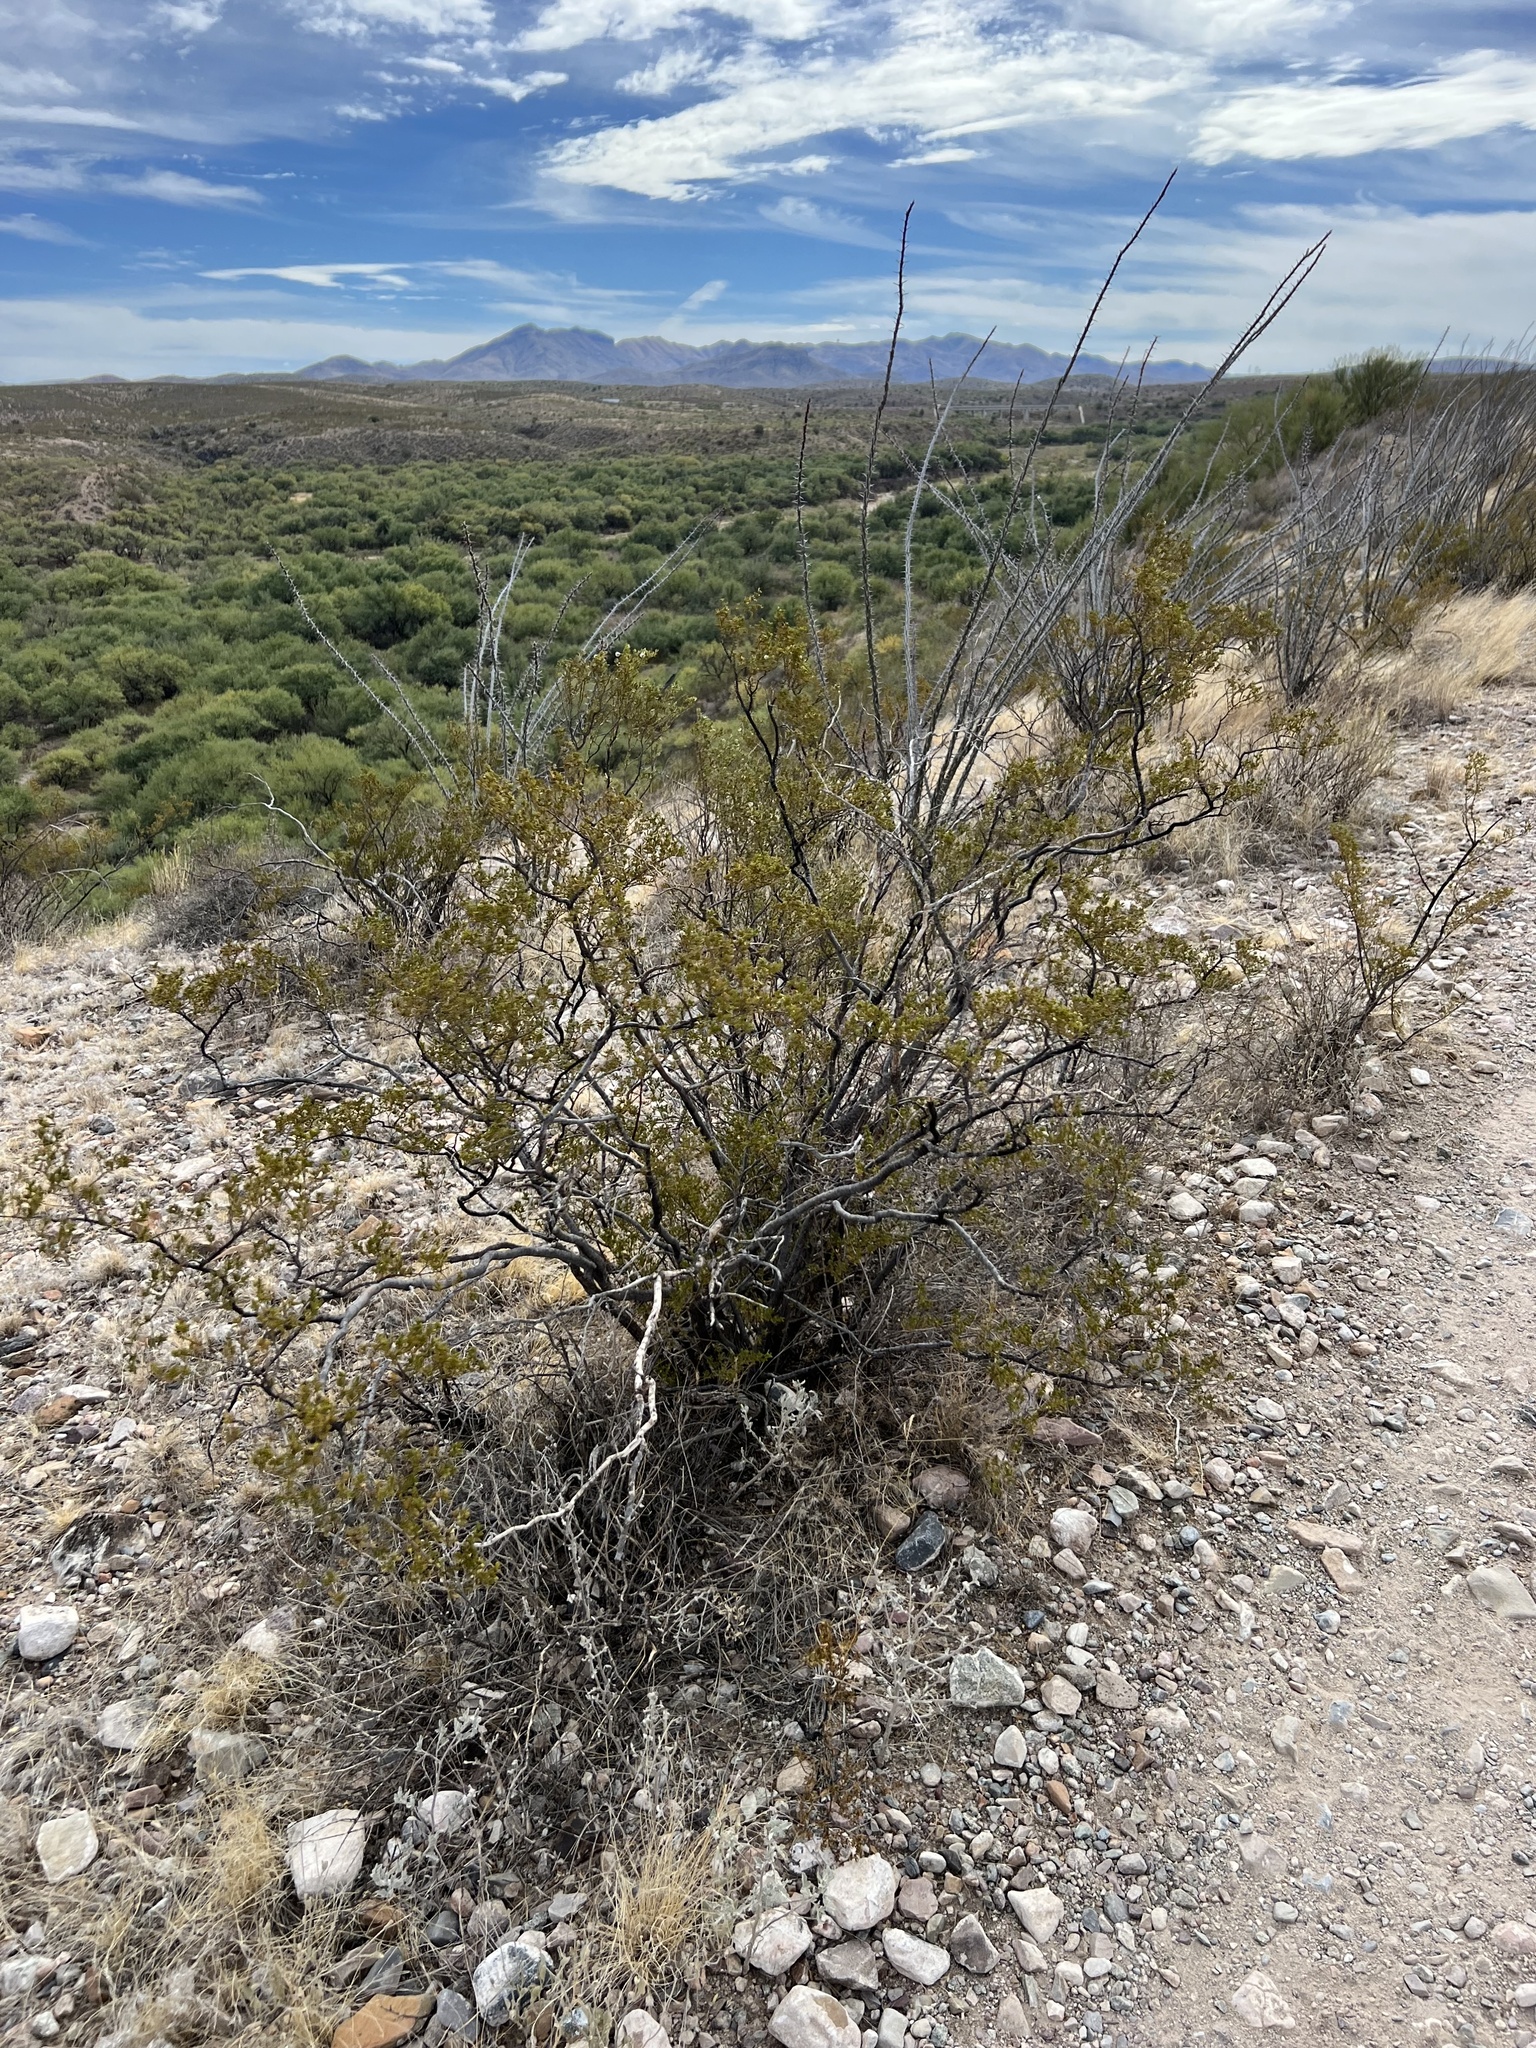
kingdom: Plantae
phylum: Tracheophyta
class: Magnoliopsida
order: Zygophyllales
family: Zygophyllaceae
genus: Larrea
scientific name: Larrea tridentata
